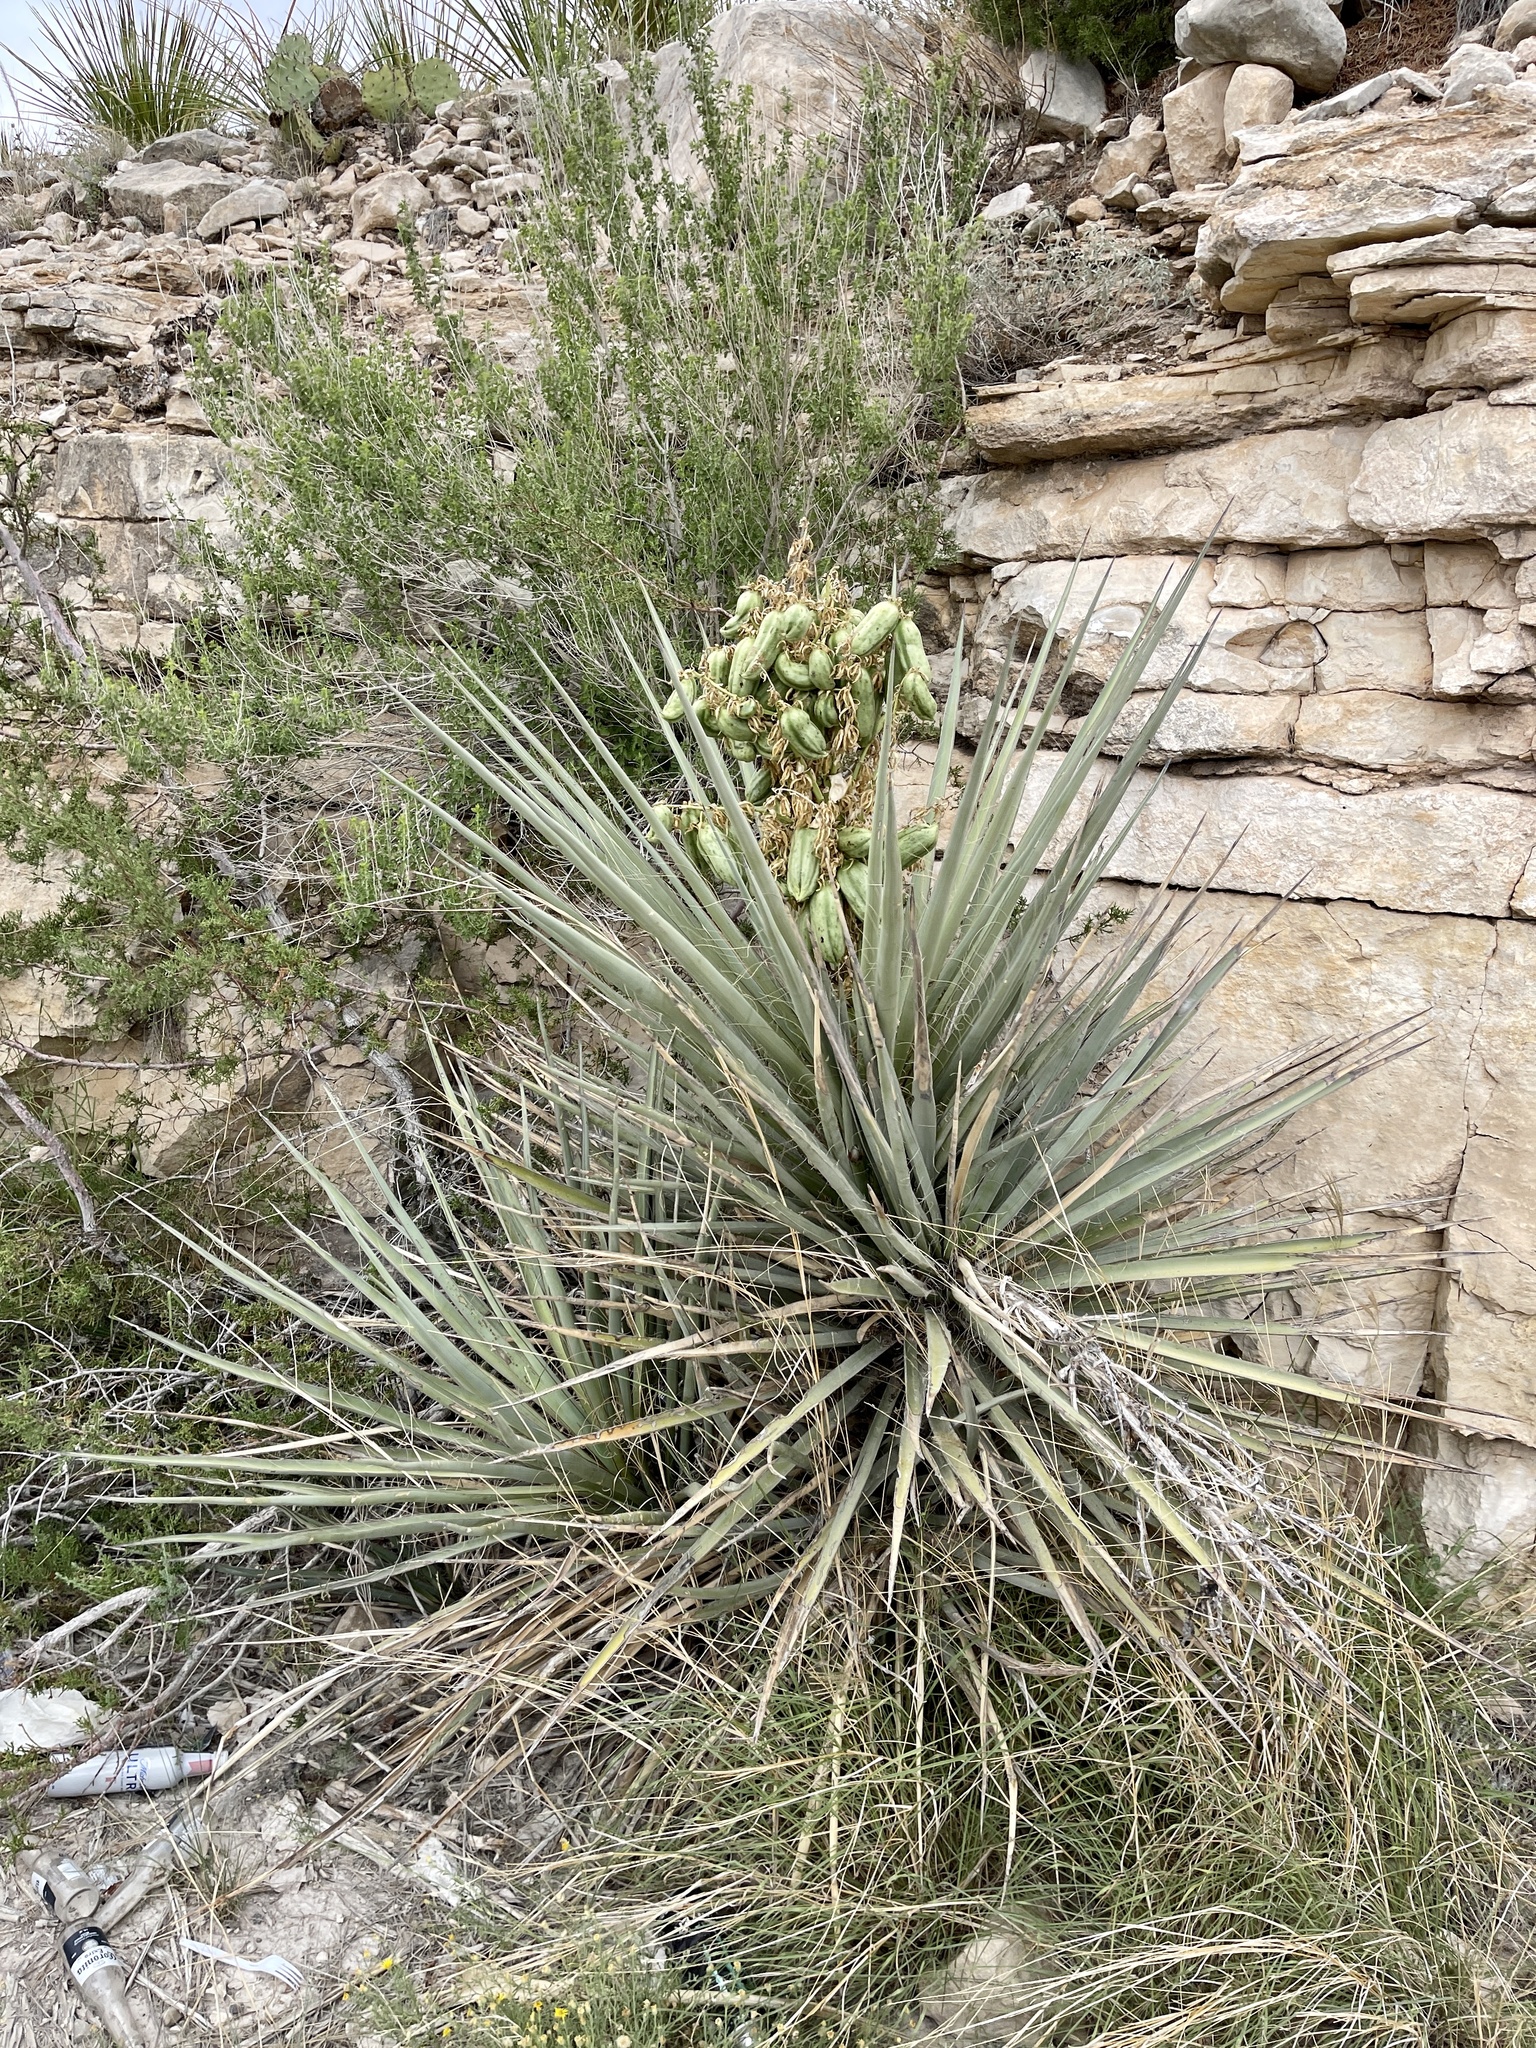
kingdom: Plantae
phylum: Tracheophyta
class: Liliopsida
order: Asparagales
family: Asparagaceae
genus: Yucca
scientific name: Yucca treculiana
